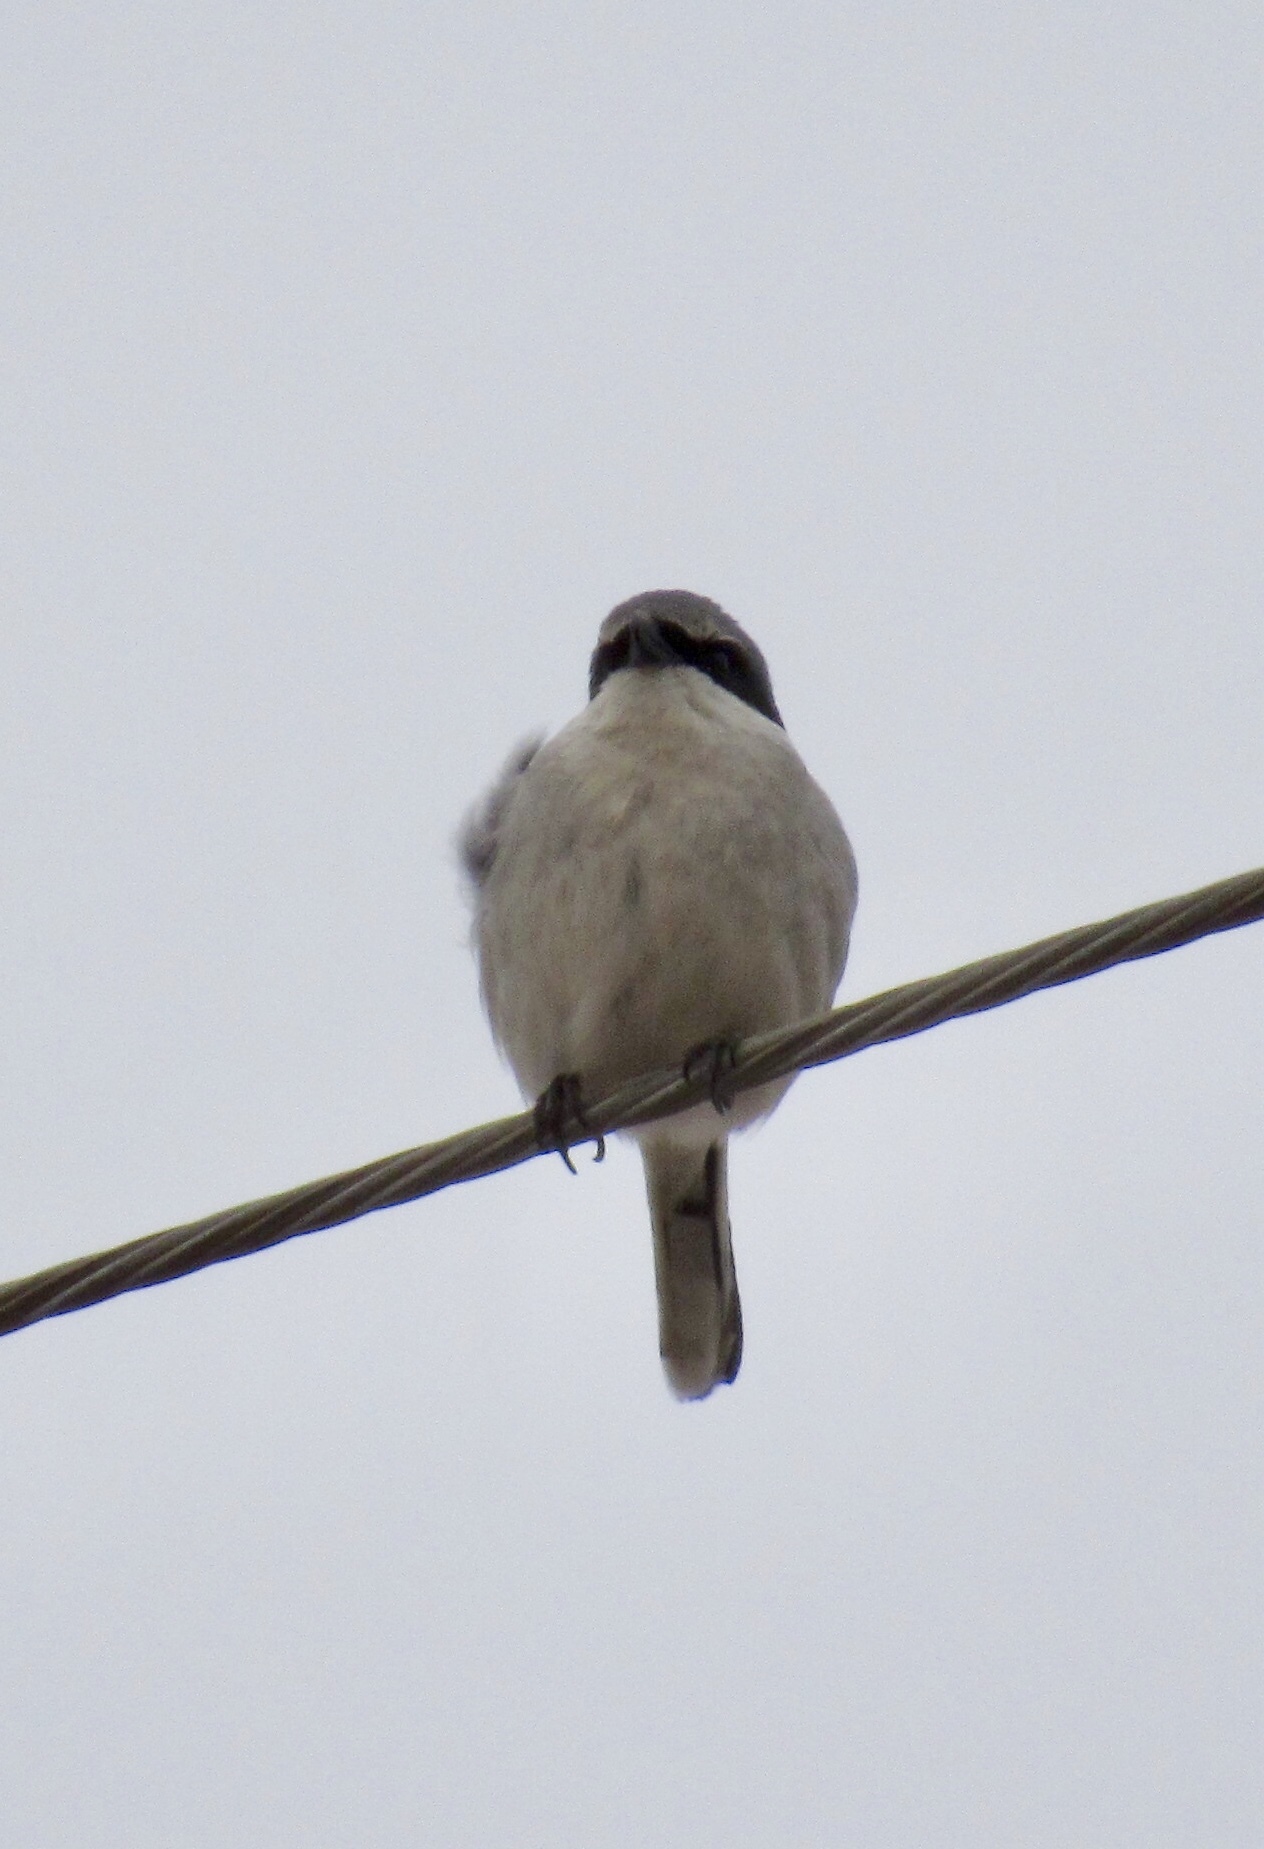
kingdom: Animalia
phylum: Chordata
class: Aves
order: Passeriformes
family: Laniidae
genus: Lanius
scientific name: Lanius ludovicianus
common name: Loggerhead shrike
